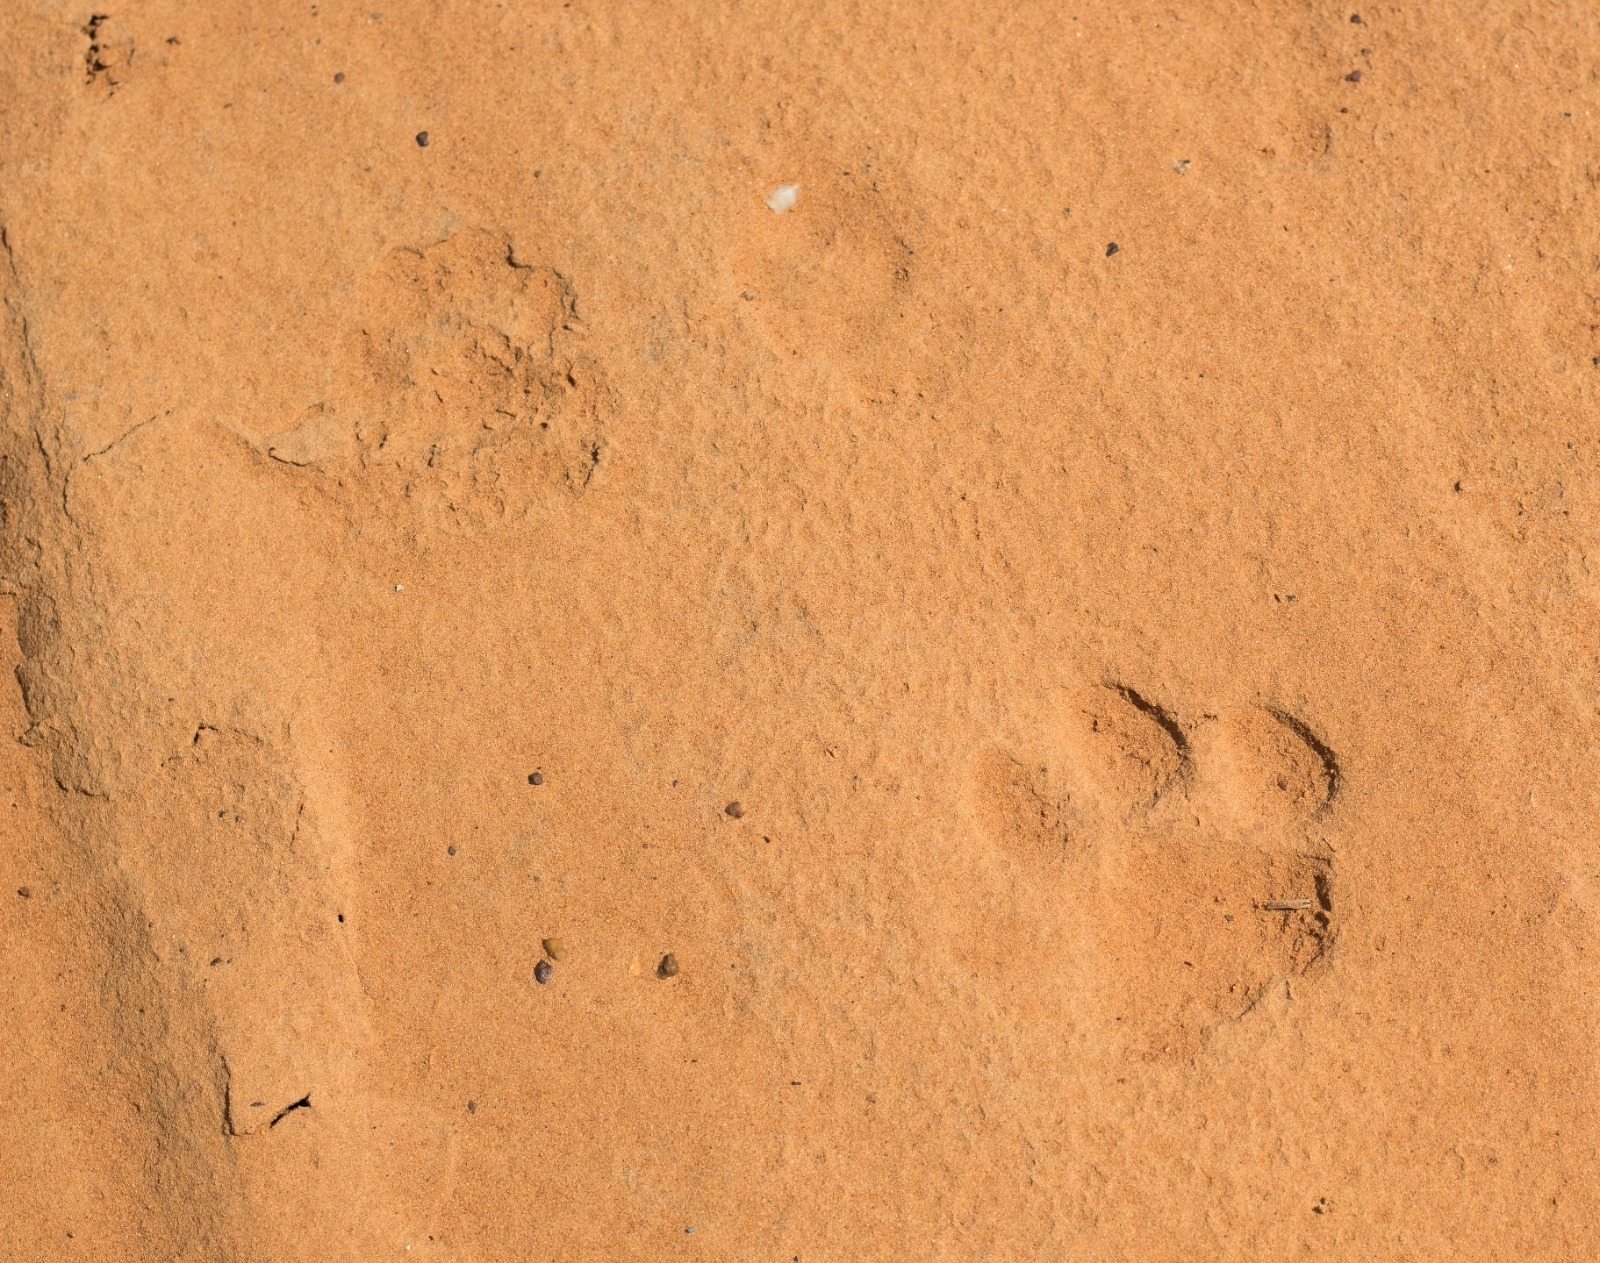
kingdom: Animalia
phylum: Chordata
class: Mammalia
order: Carnivora
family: Felidae
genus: Puma
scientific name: Puma concolor
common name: Puma
